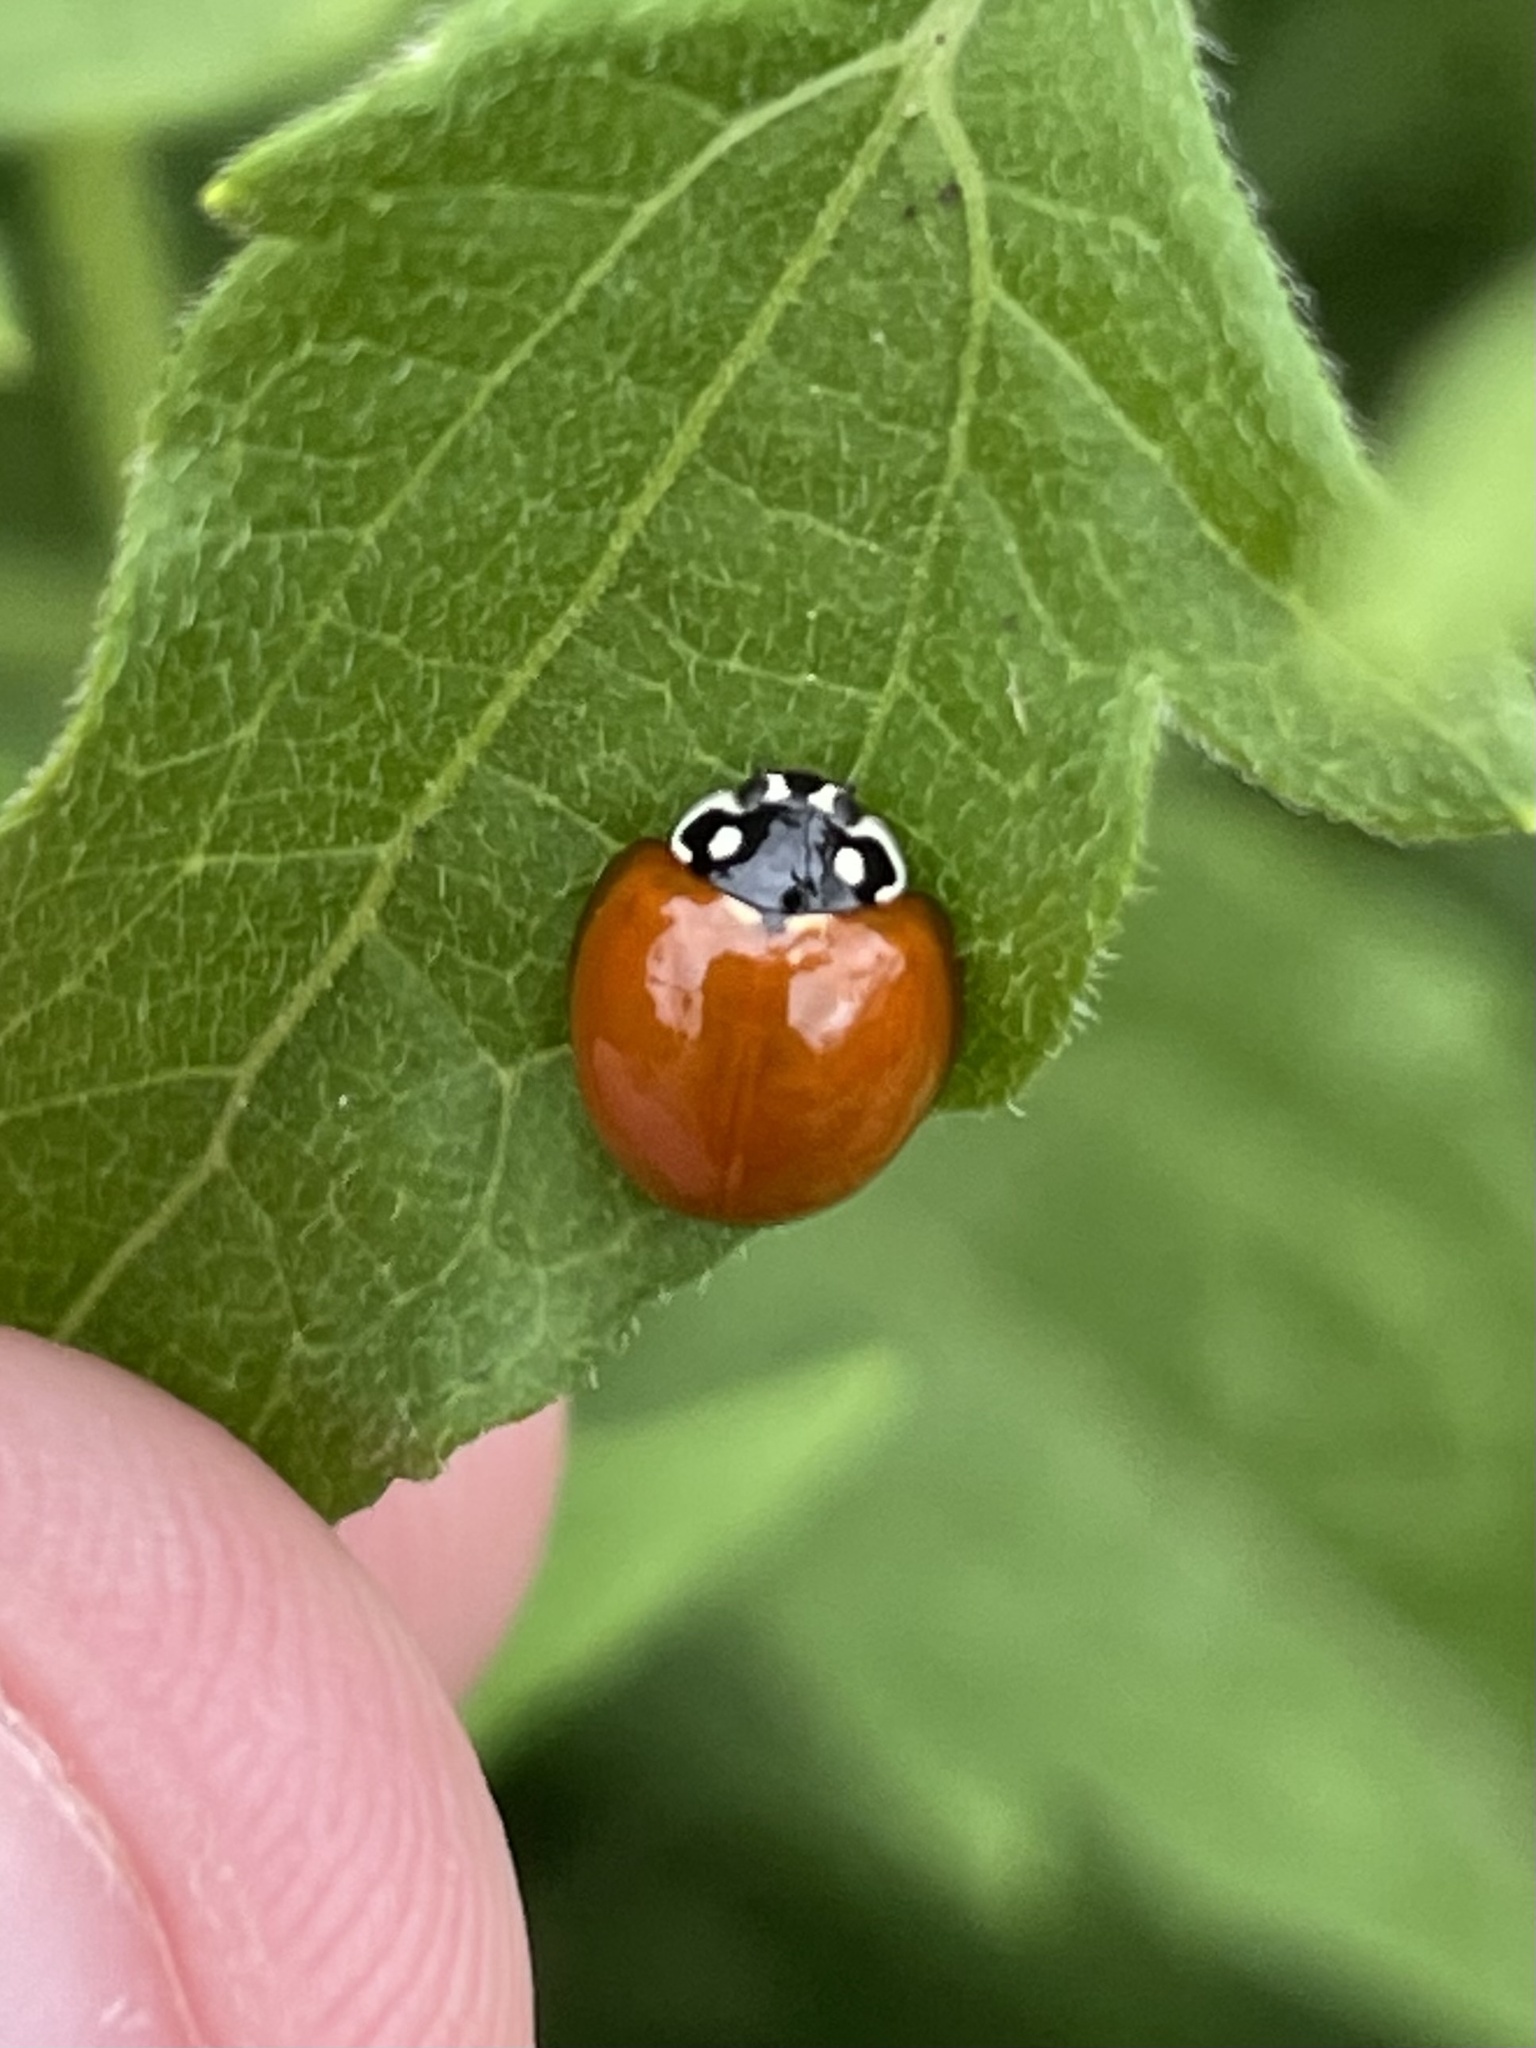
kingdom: Animalia
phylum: Arthropoda
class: Insecta
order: Coleoptera
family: Coccinellidae
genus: Cycloneda
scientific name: Cycloneda sanguinea
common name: Ladybird beetle
